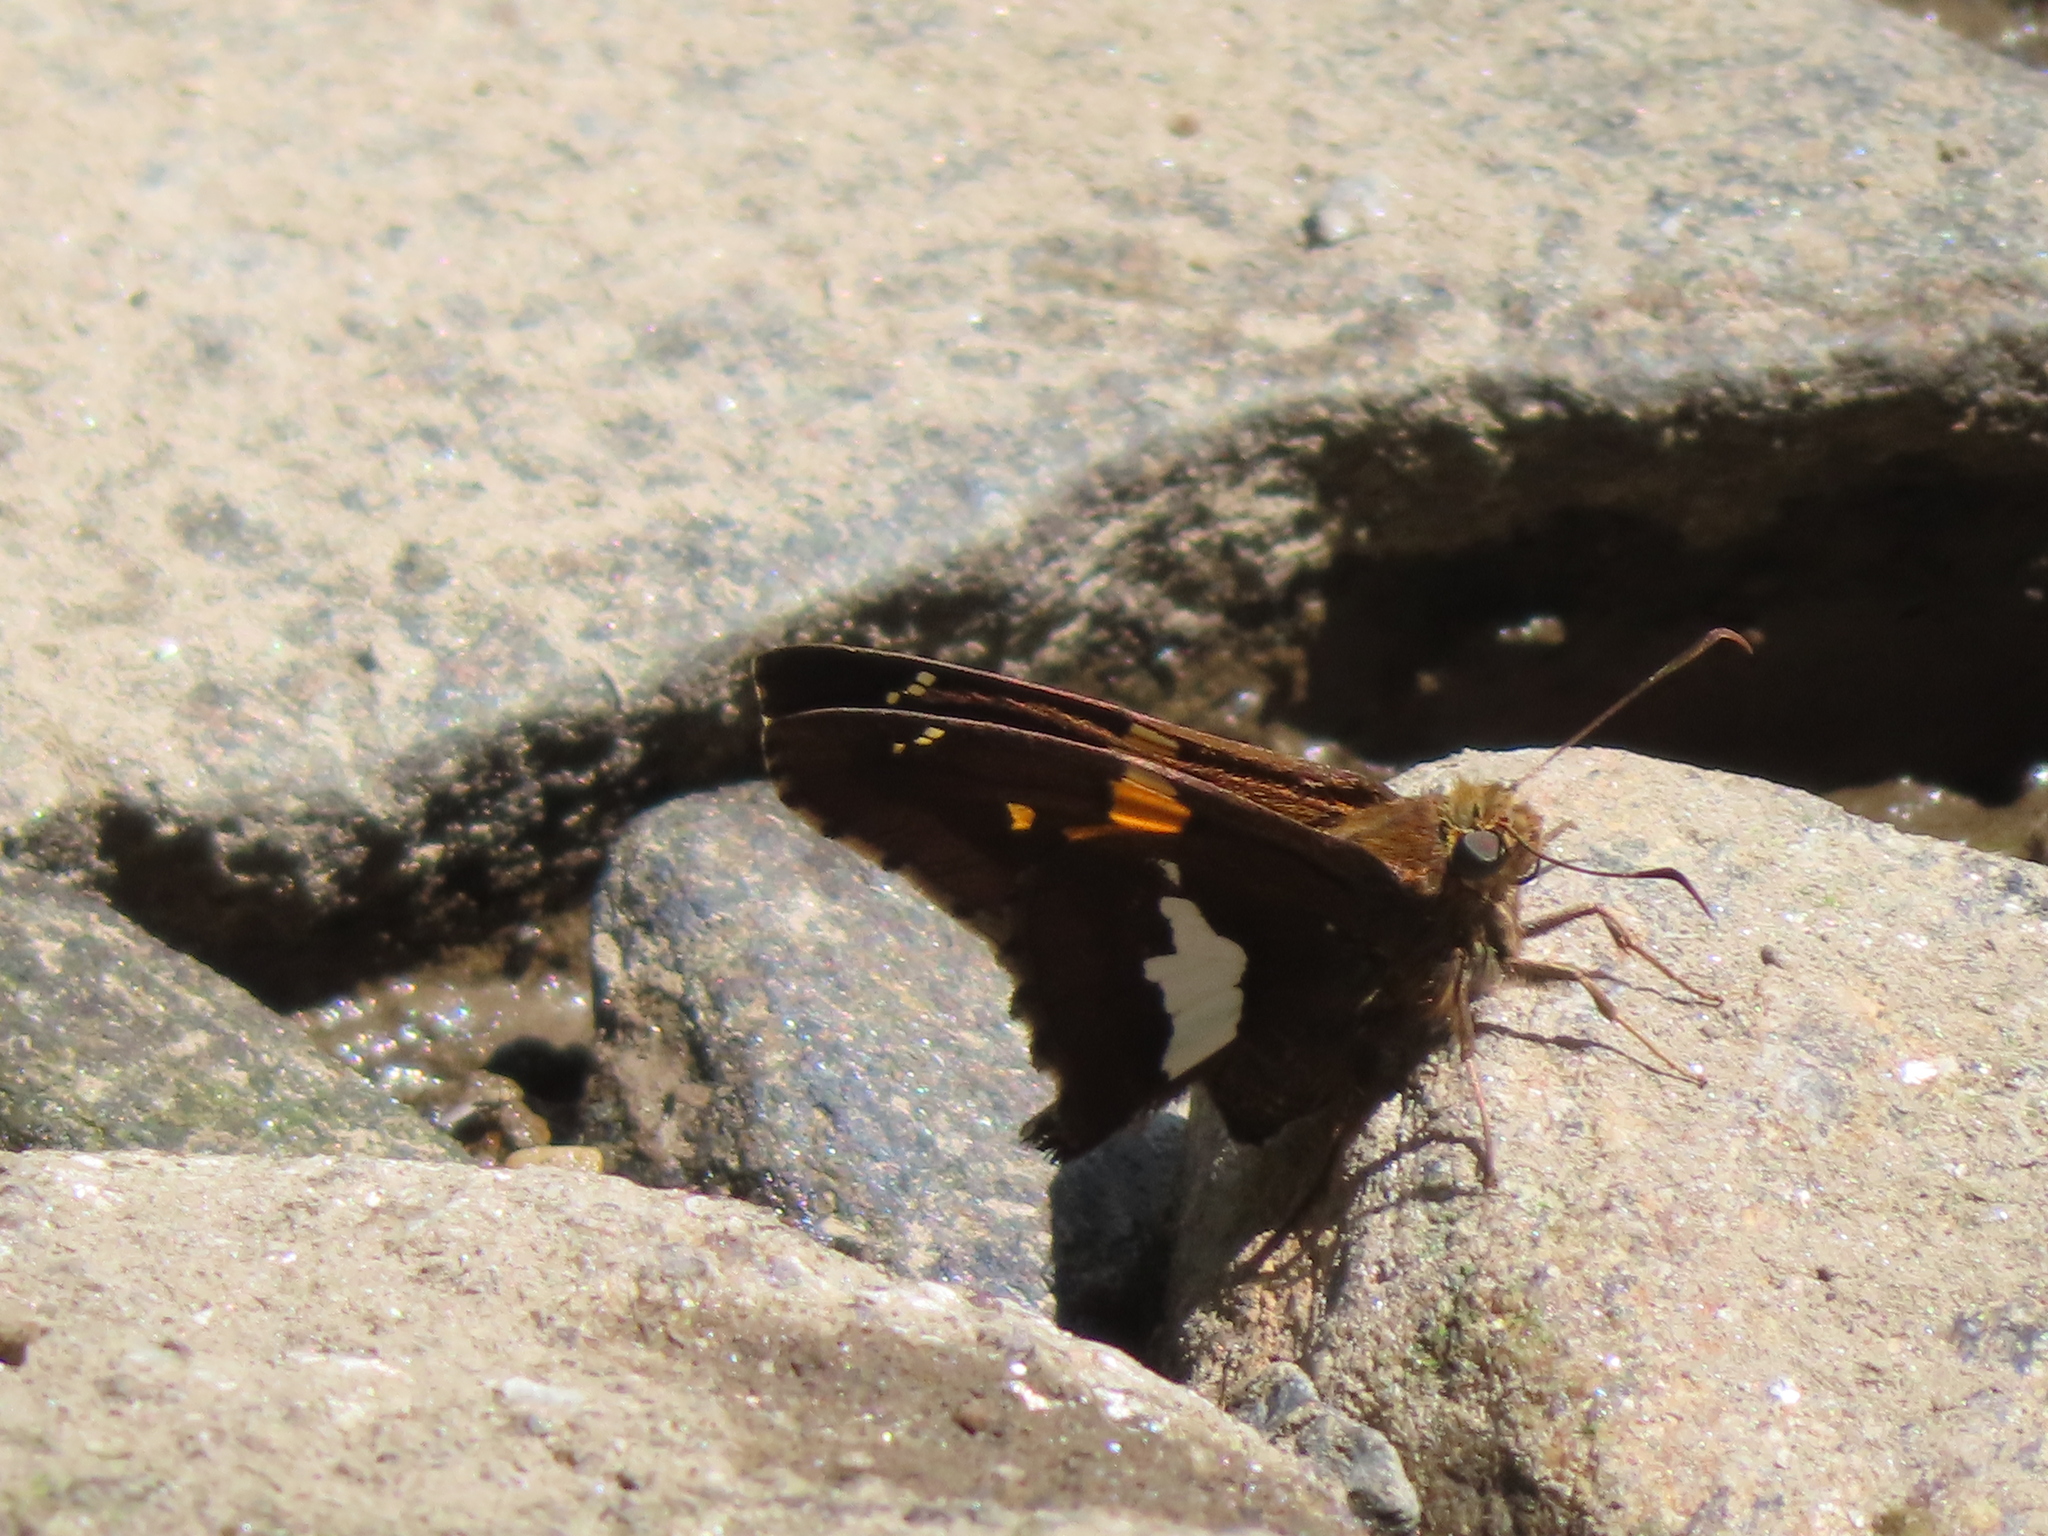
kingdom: Animalia
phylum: Arthropoda
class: Insecta
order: Lepidoptera
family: Hesperiidae
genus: Epargyreus
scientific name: Epargyreus clarus
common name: Silver-spotted skipper
